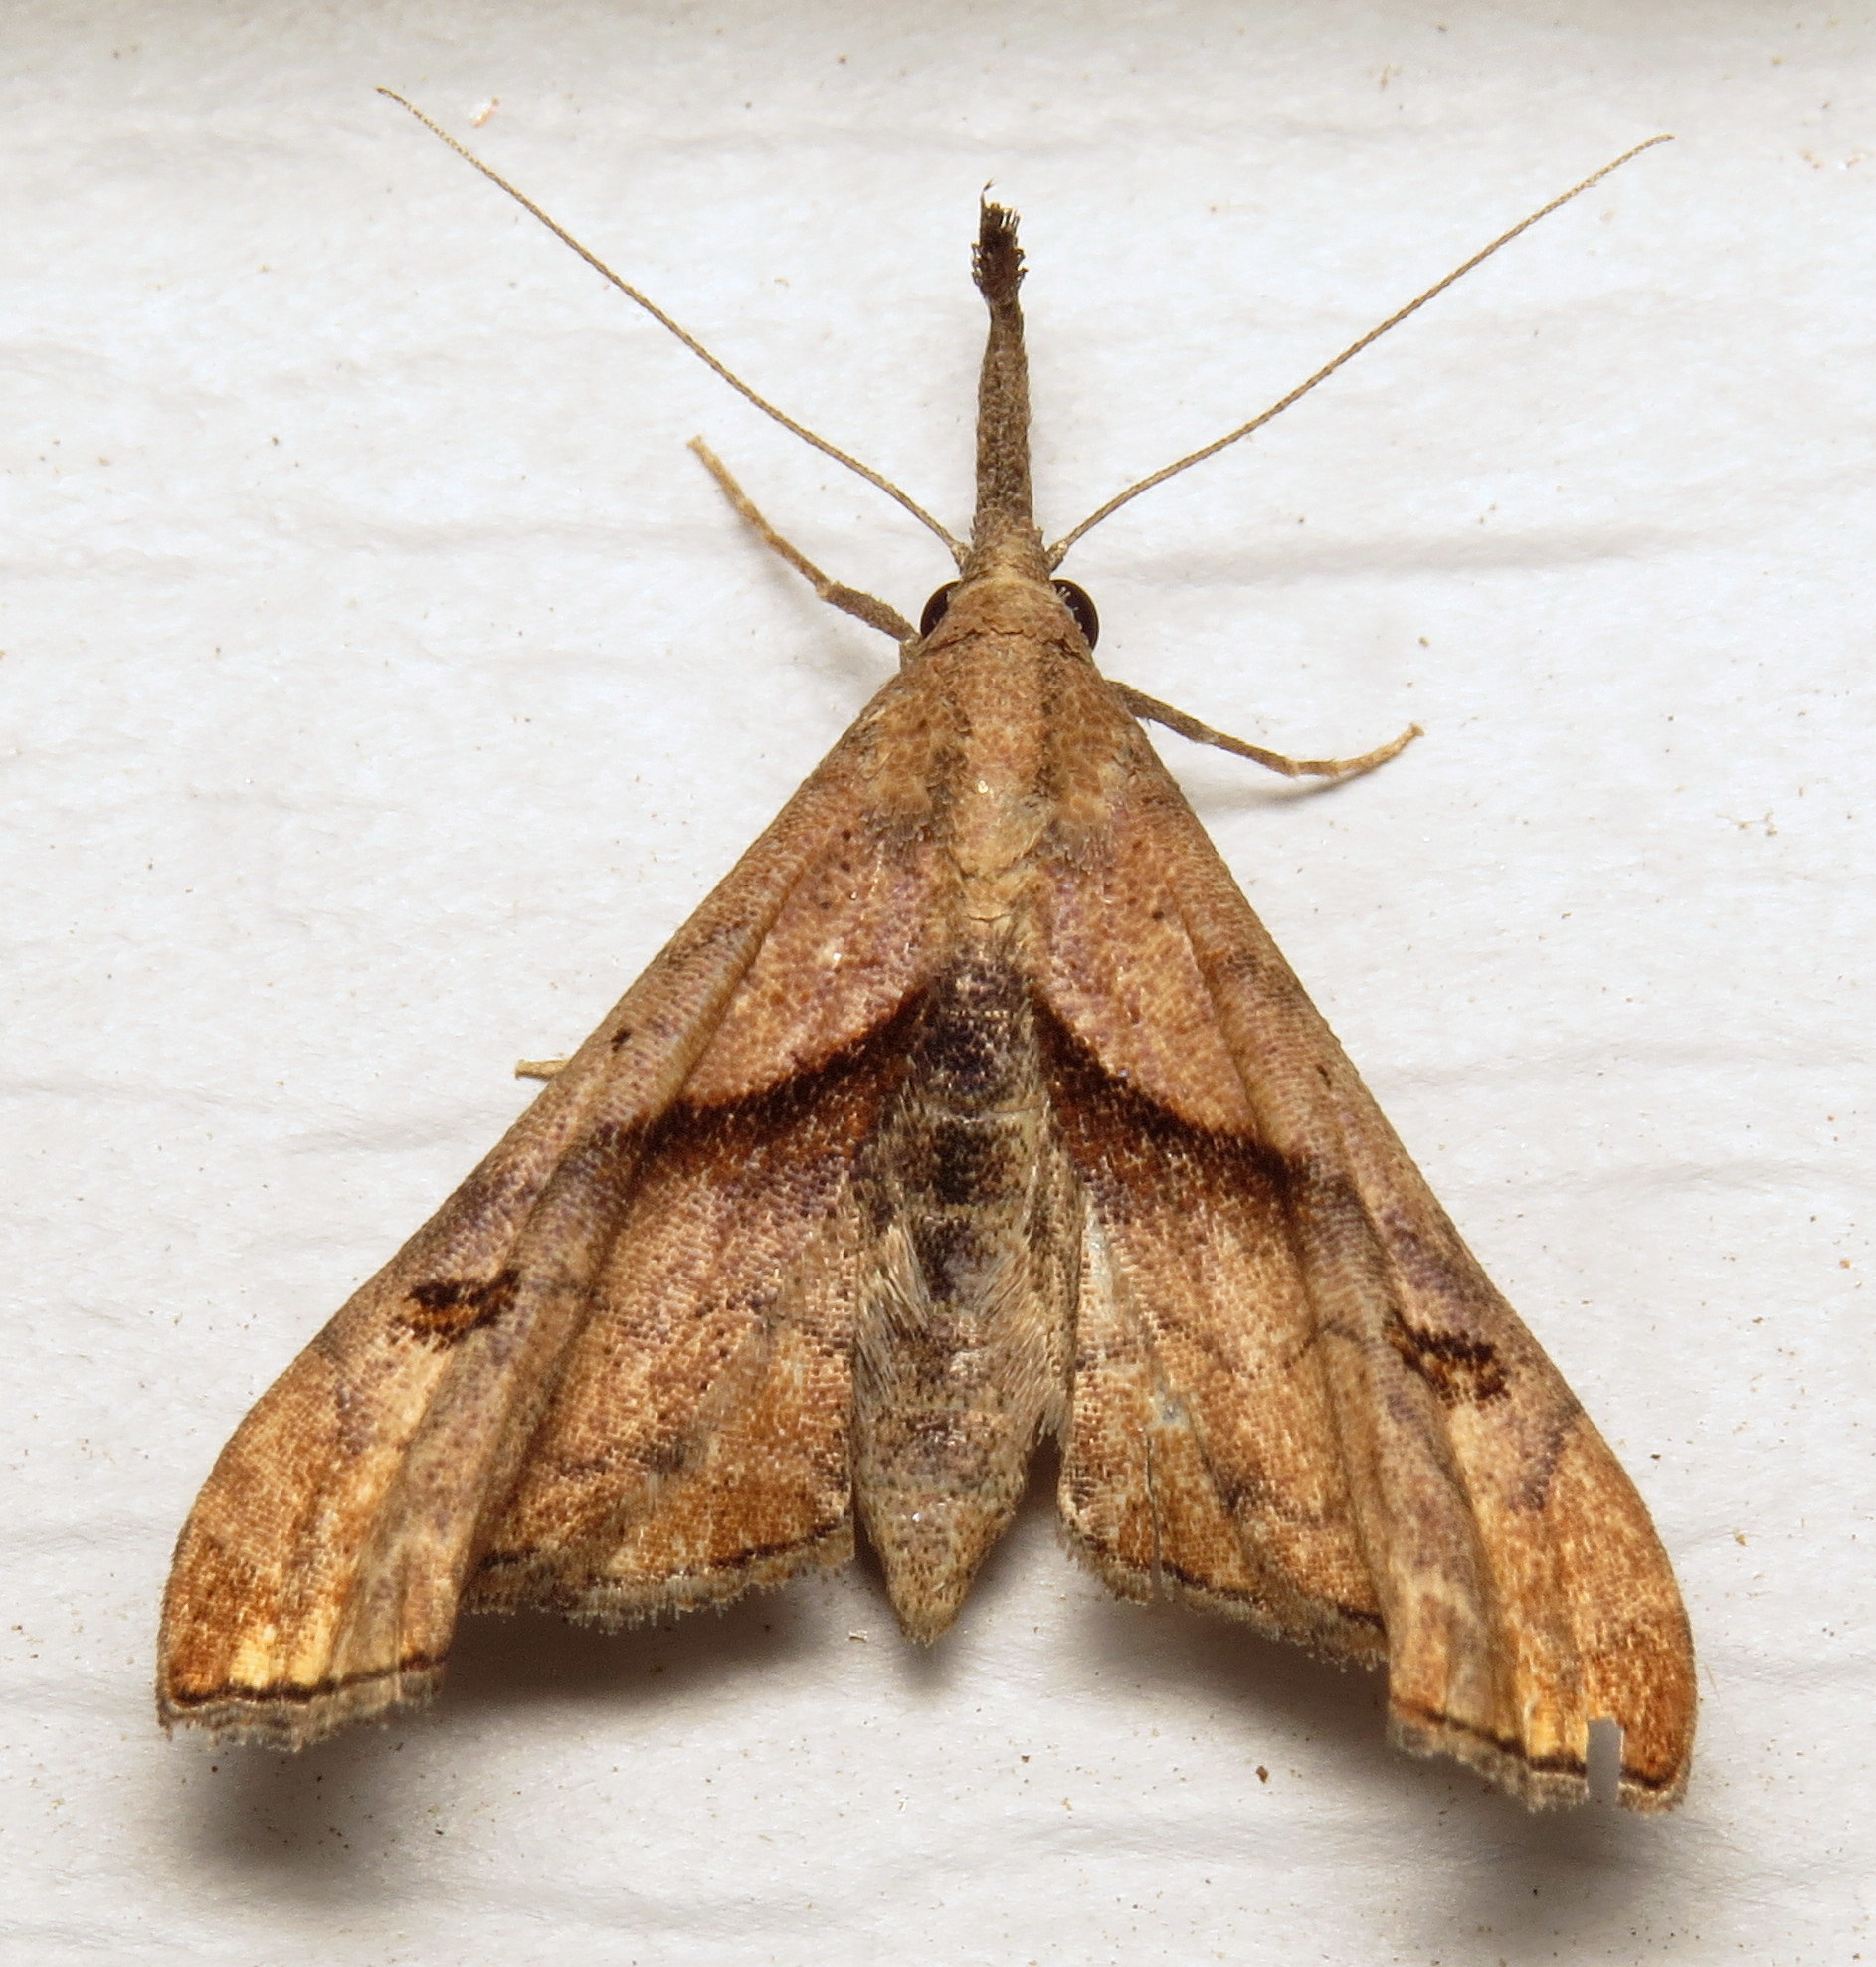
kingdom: Animalia
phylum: Arthropoda
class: Insecta
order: Lepidoptera
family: Erebidae
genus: Palthis
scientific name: Palthis angulalis
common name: Dark-spotted palthis moth
